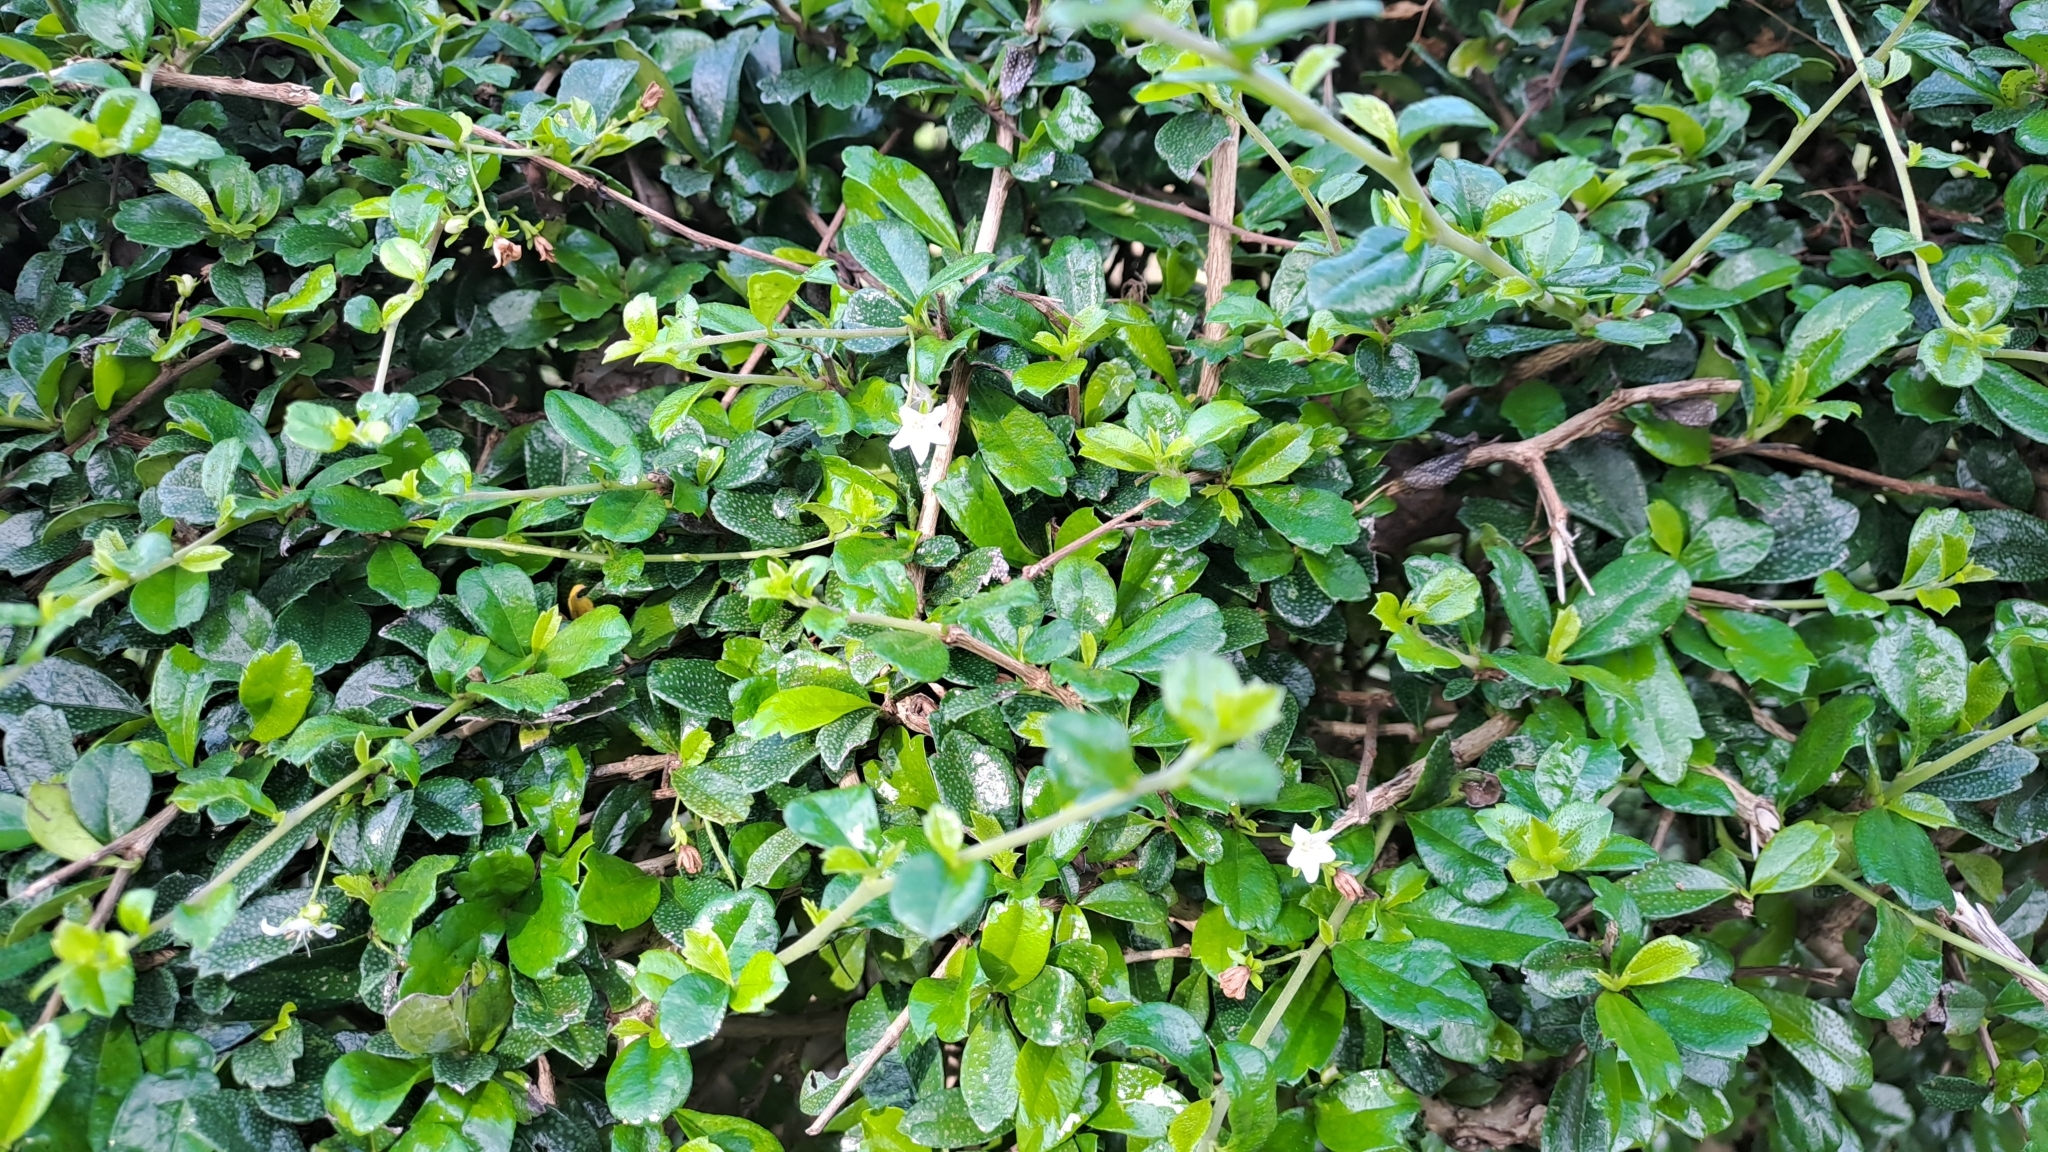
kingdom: Plantae
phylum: Tracheophyta
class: Magnoliopsida
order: Boraginales
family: Ehretiaceae
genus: Ehretia
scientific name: Ehretia microphylla
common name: Fukien-tea
